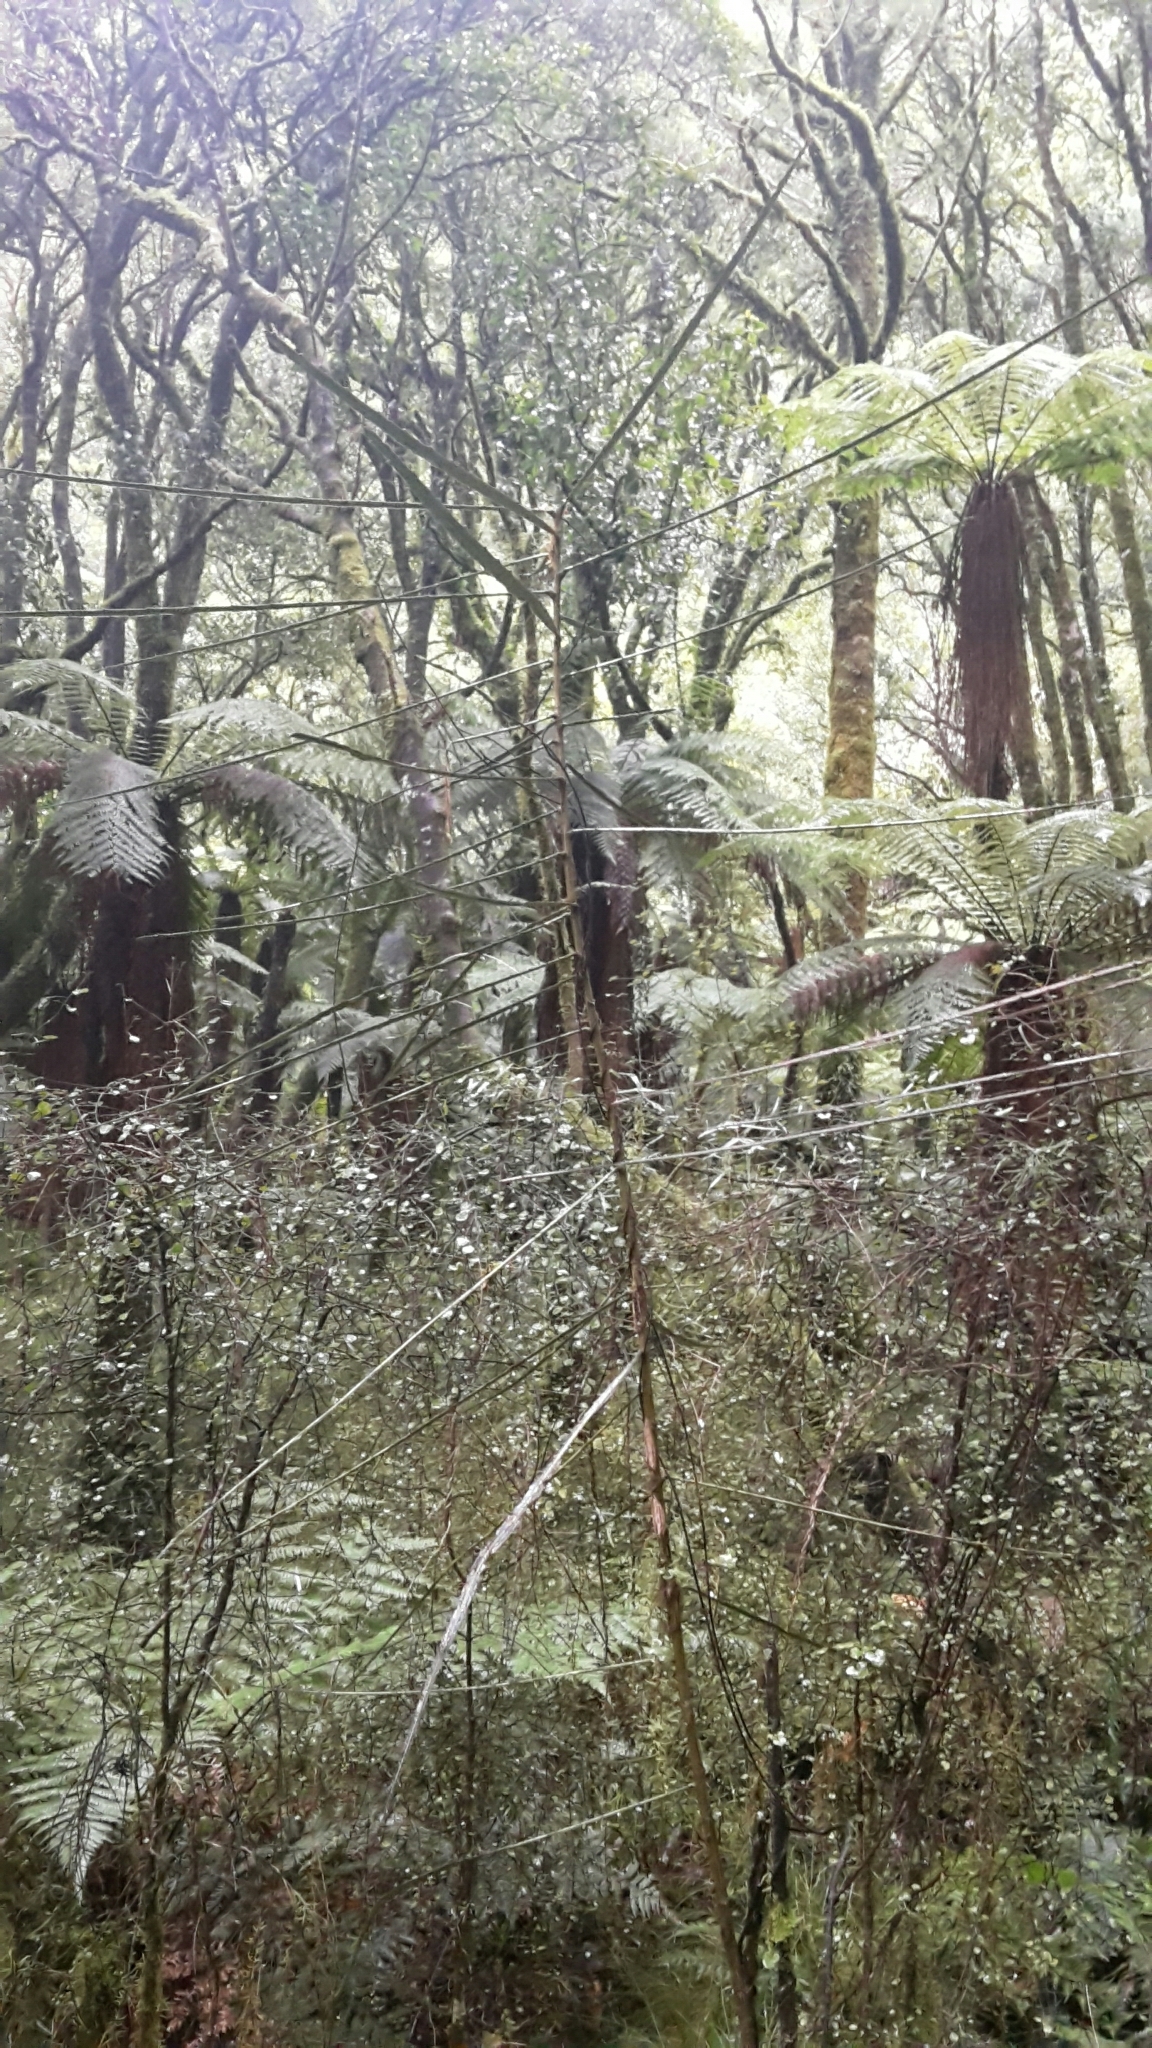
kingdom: Plantae
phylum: Tracheophyta
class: Magnoliopsida
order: Apiales
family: Araliaceae
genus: Pseudopanax
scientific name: Pseudopanax crassifolius
